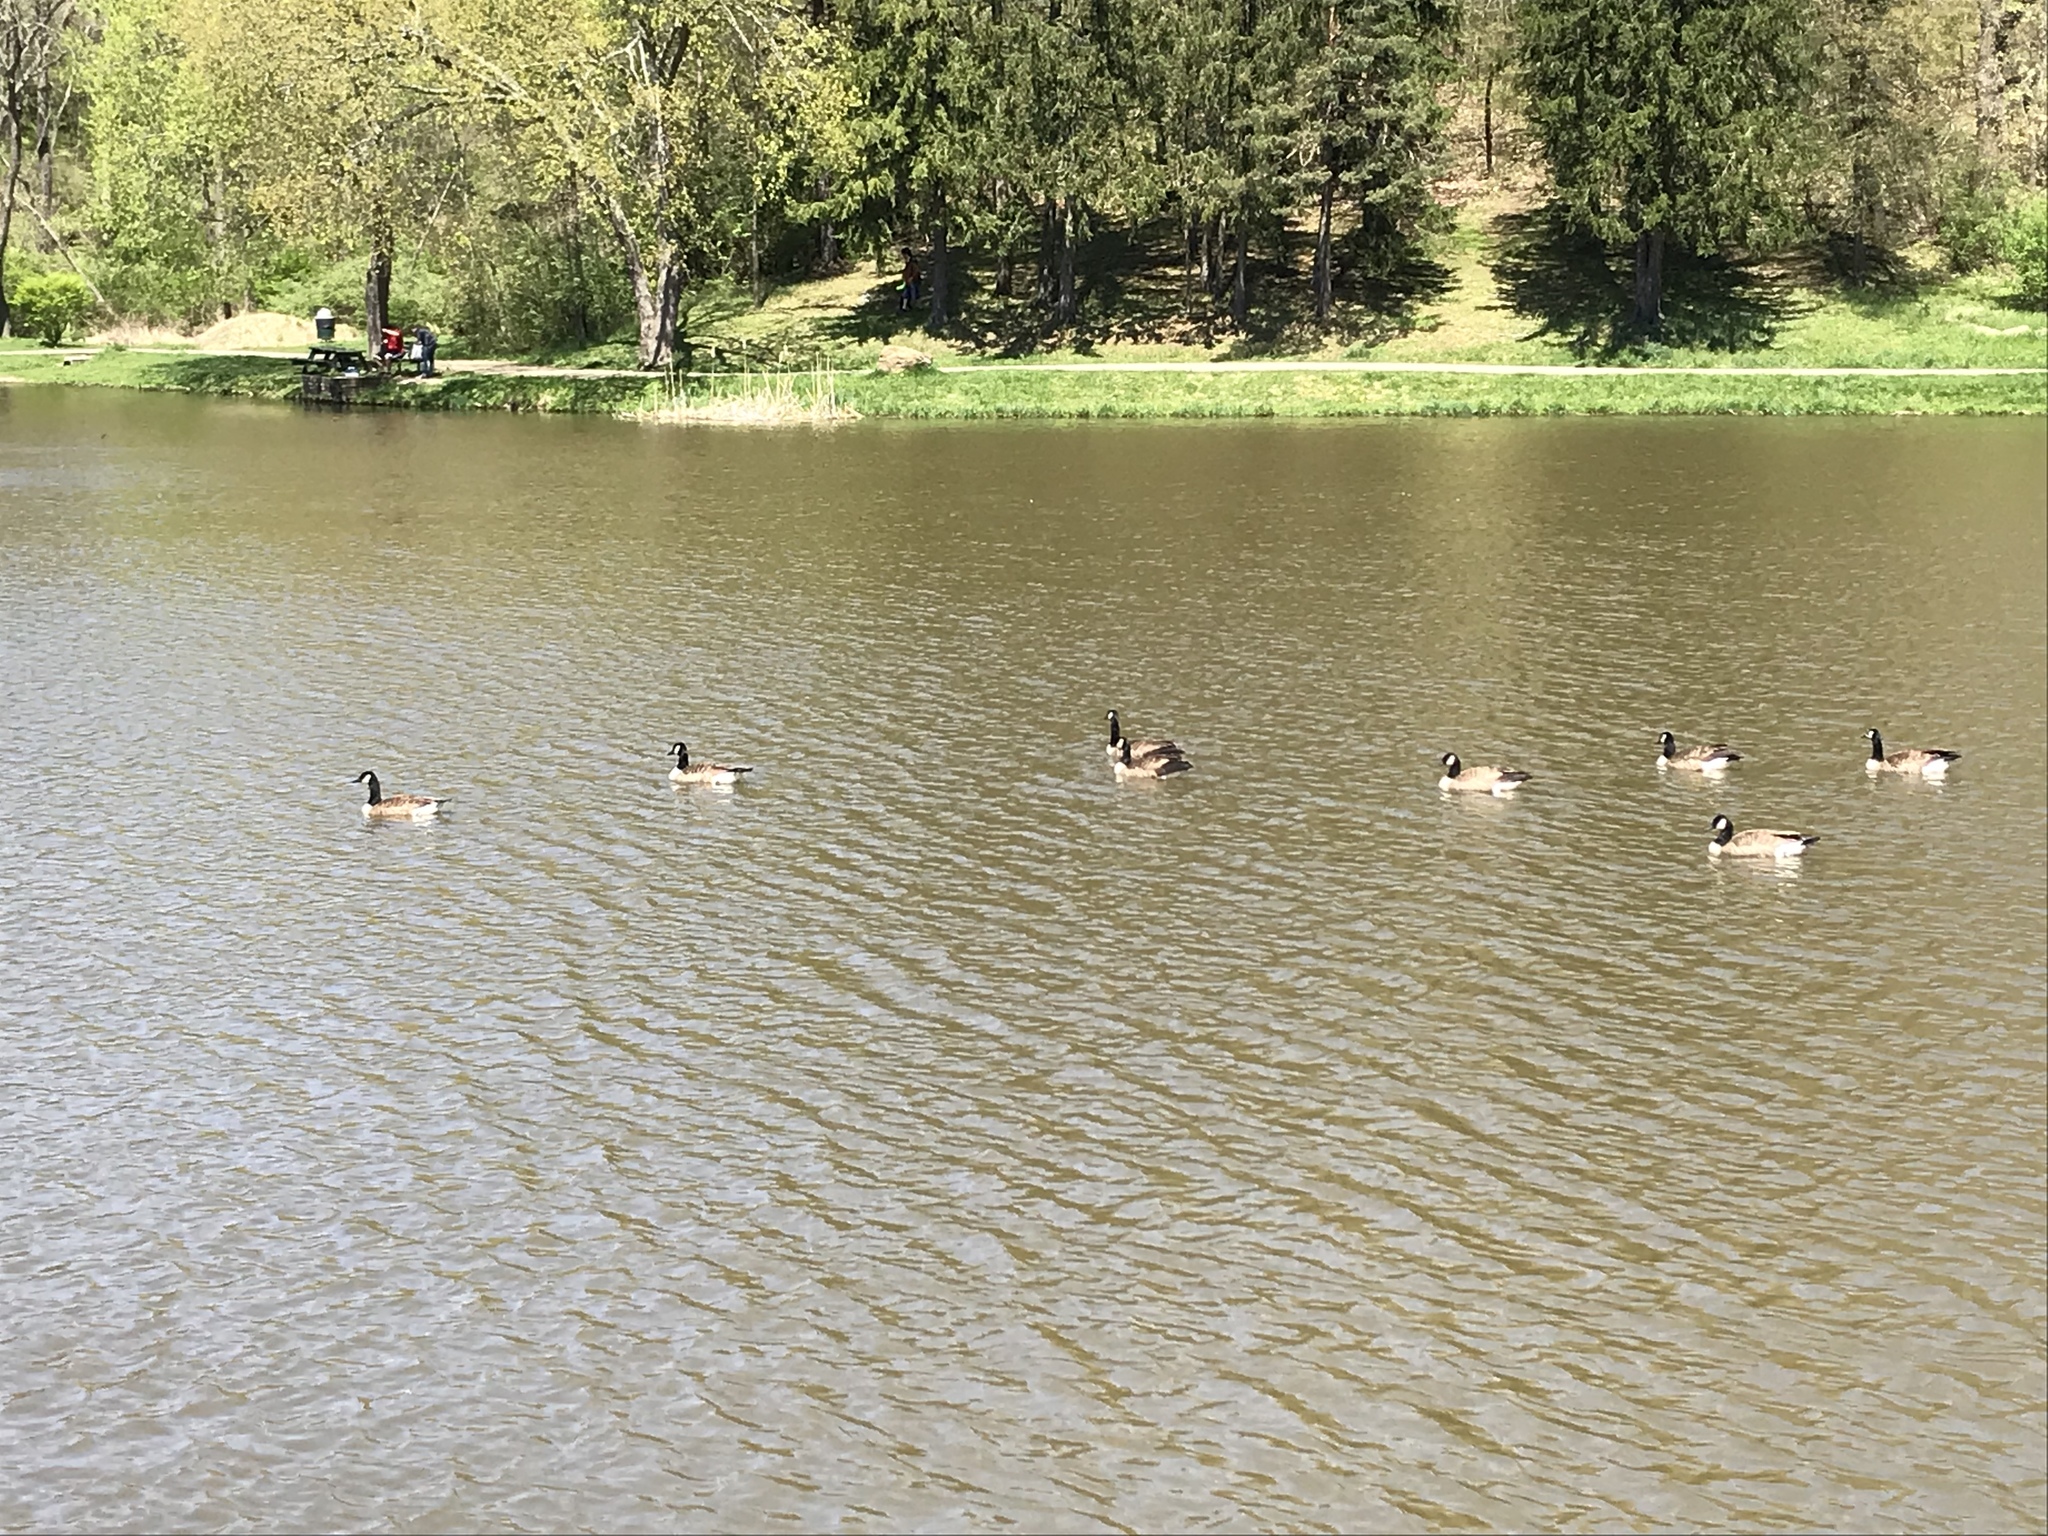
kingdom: Animalia
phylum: Chordata
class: Aves
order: Anseriformes
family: Anatidae
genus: Branta
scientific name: Branta canadensis
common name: Canada goose
